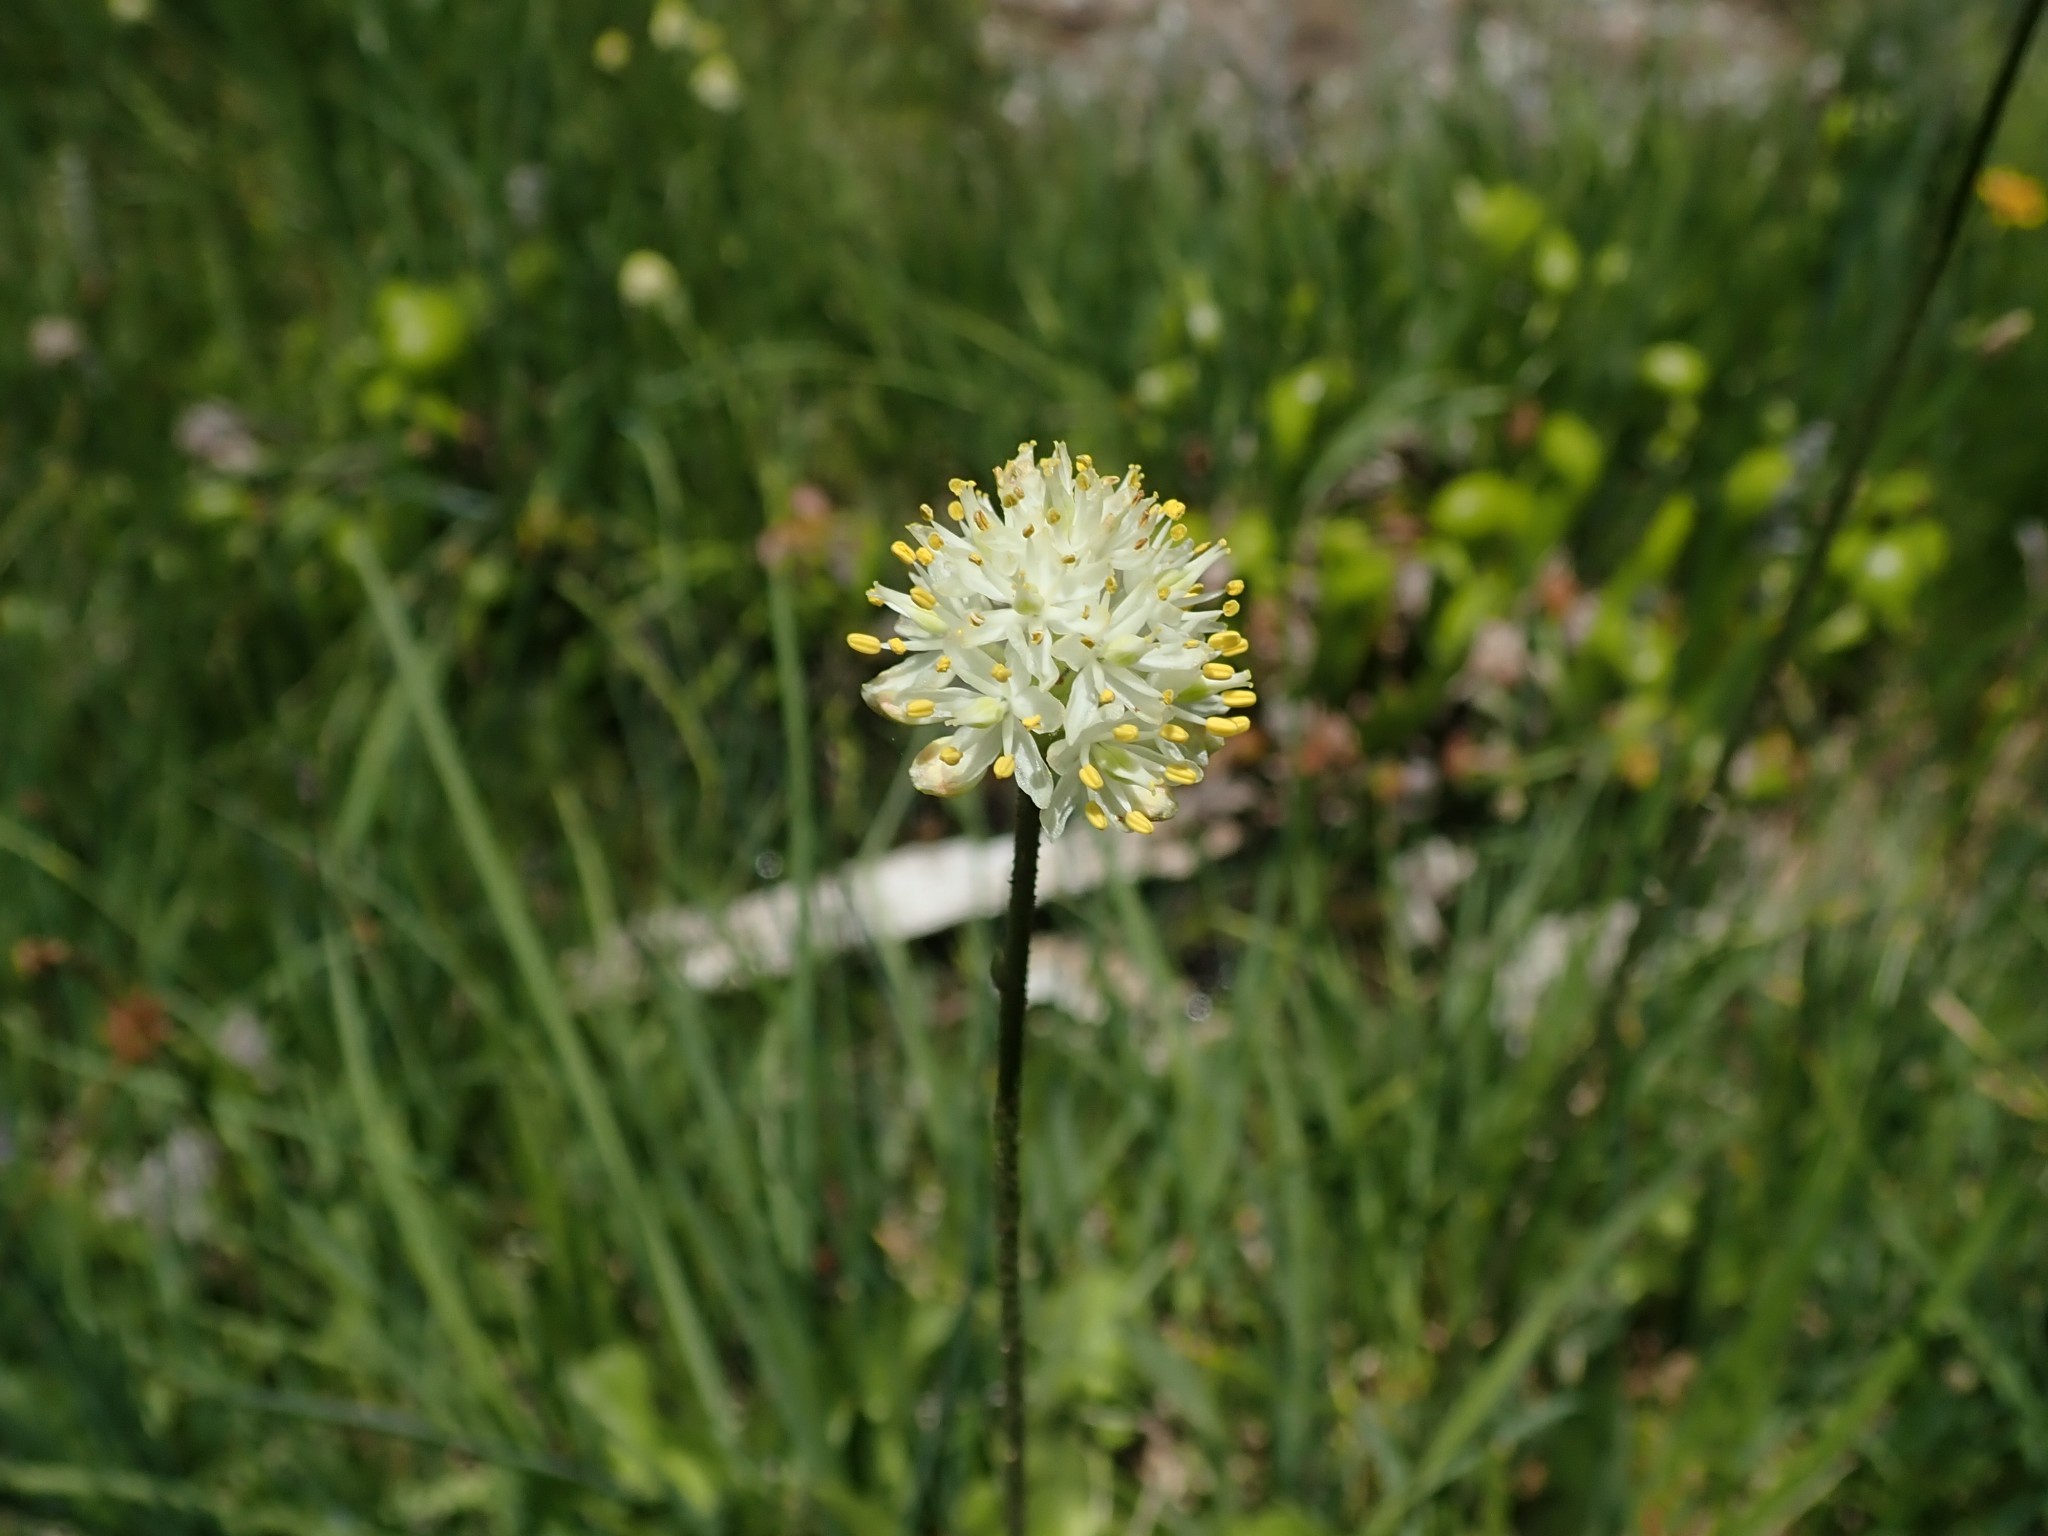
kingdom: Plantae
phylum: Tracheophyta
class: Liliopsida
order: Alismatales
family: Tofieldiaceae
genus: Triantha
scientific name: Triantha occidentalis
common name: Western false asphodel
